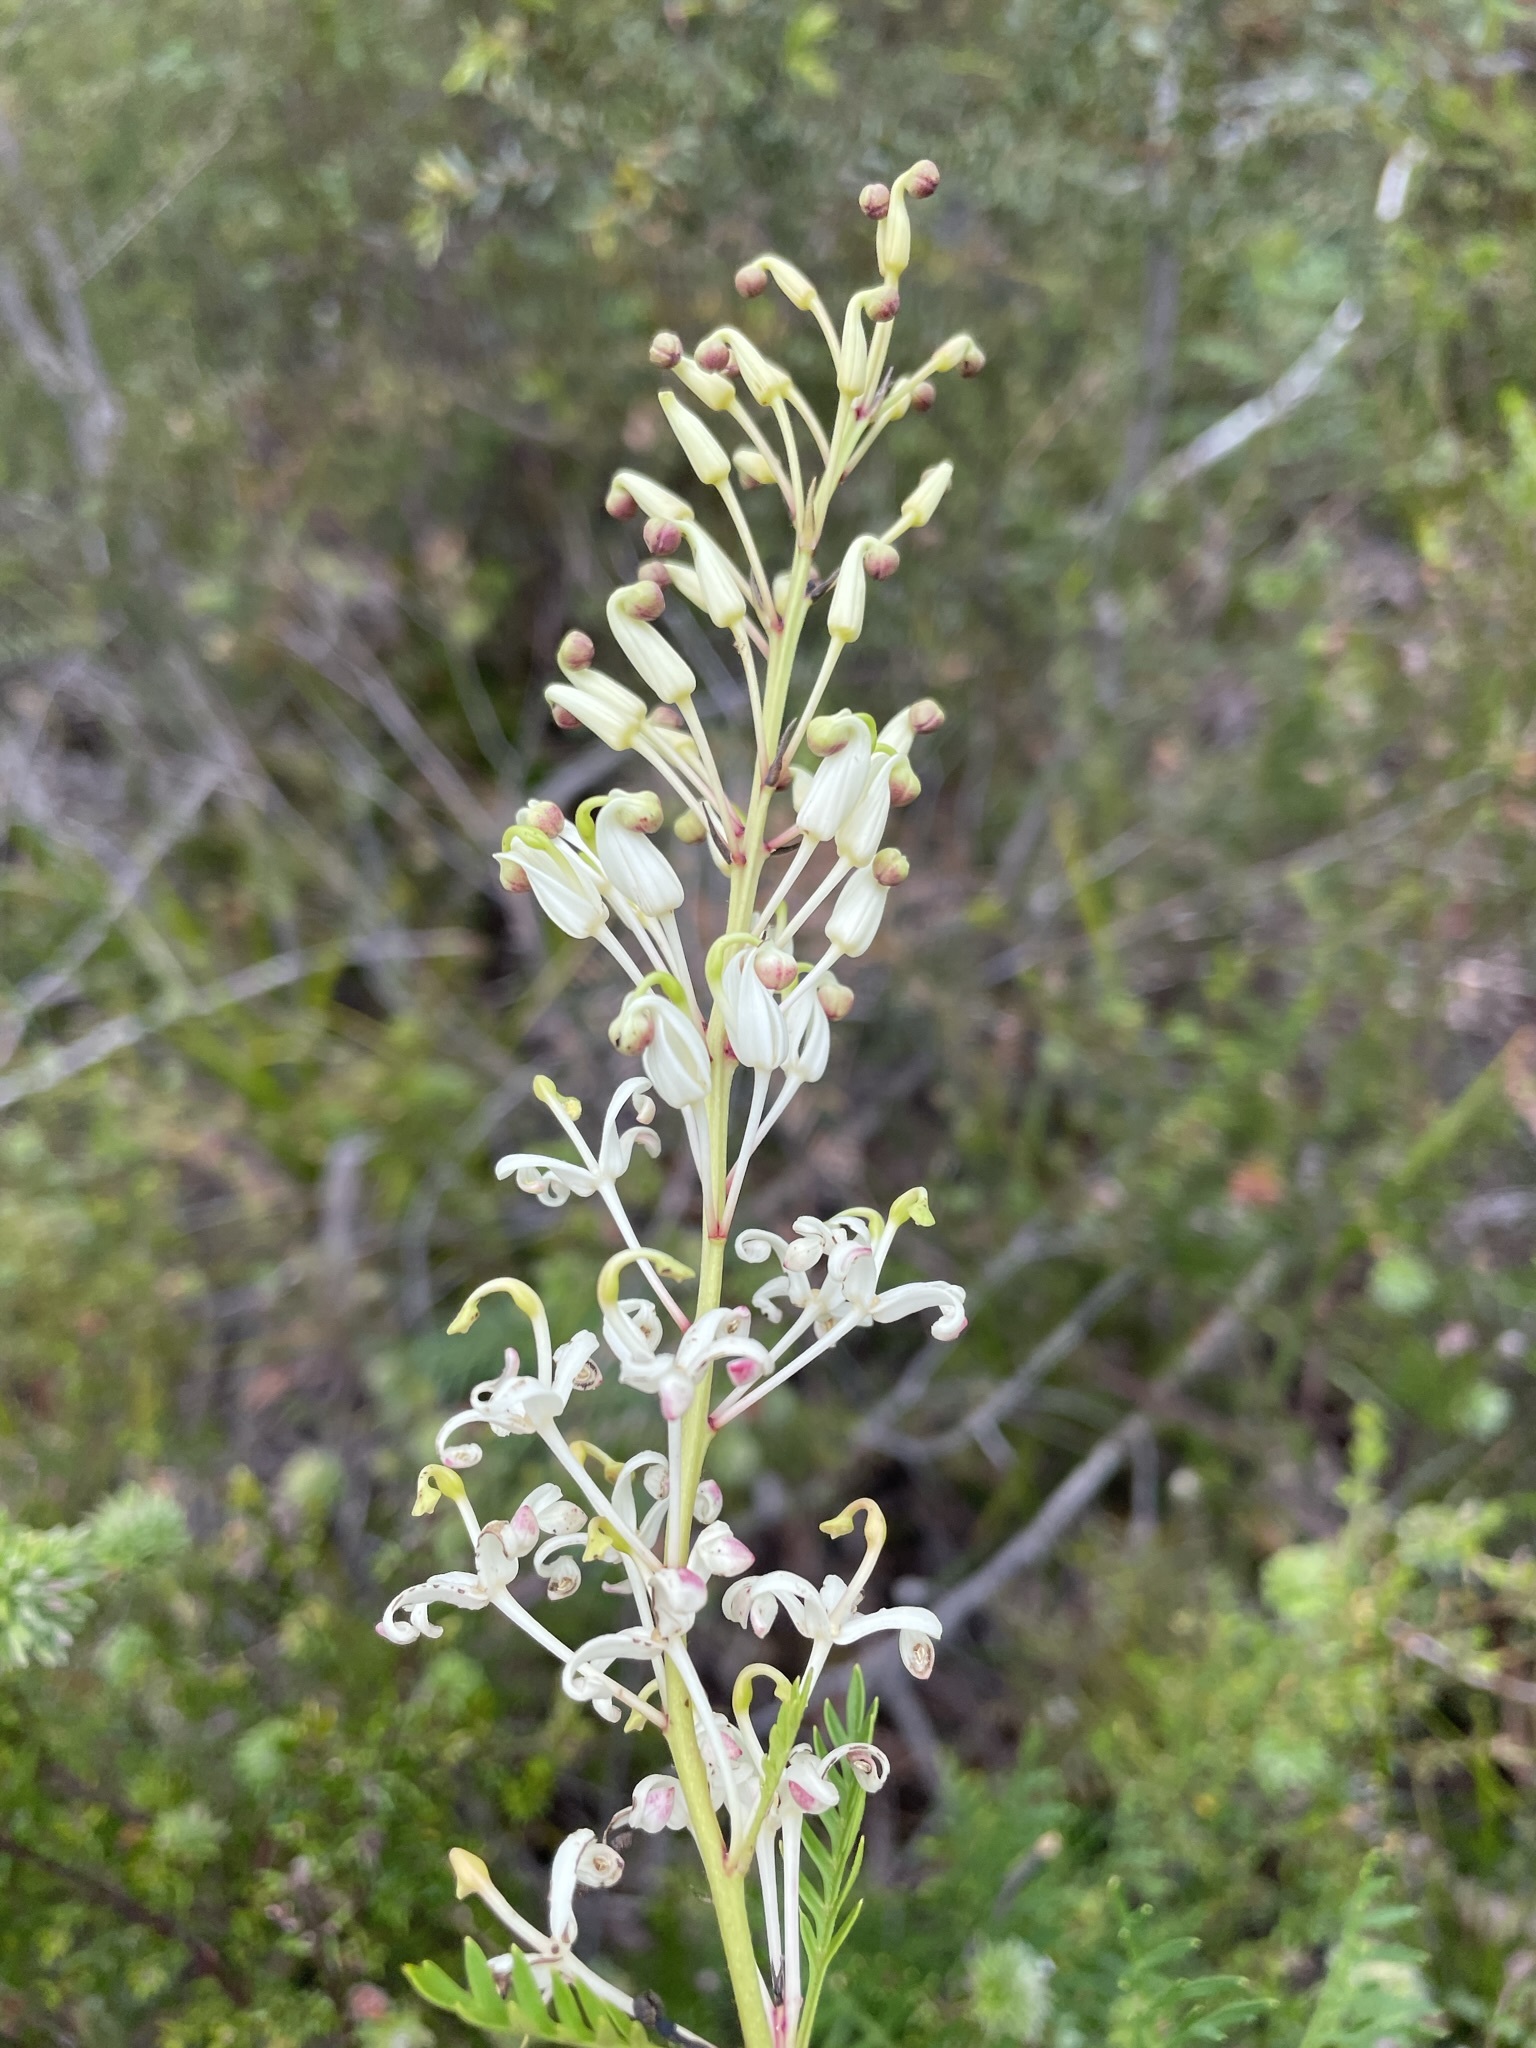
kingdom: Plantae
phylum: Tracheophyta
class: Magnoliopsida
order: Proteales
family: Proteaceae
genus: Lomatia
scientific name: Lomatia tinctoria
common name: Guitar plant
